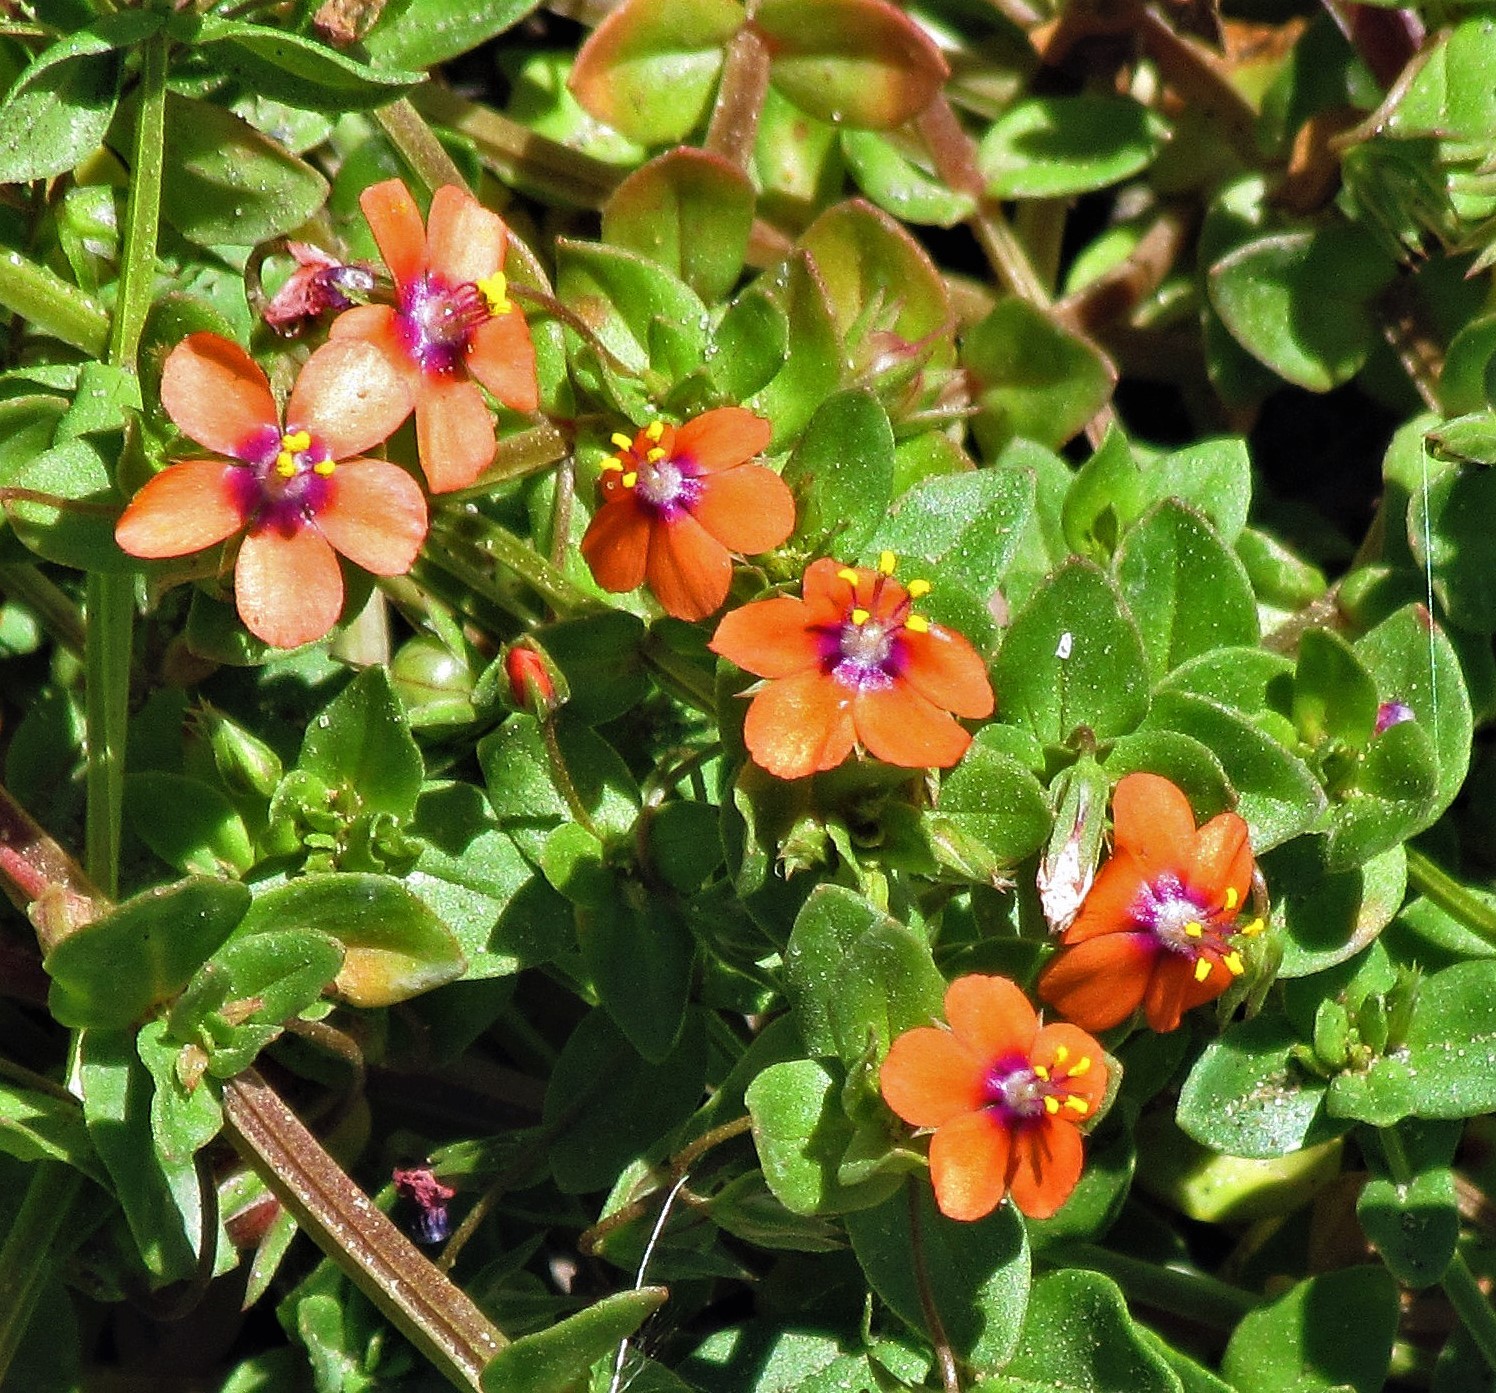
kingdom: Plantae
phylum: Tracheophyta
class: Magnoliopsida
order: Ericales
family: Primulaceae
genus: Lysimachia
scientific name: Lysimachia arvensis
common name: Scarlet pimpernel
